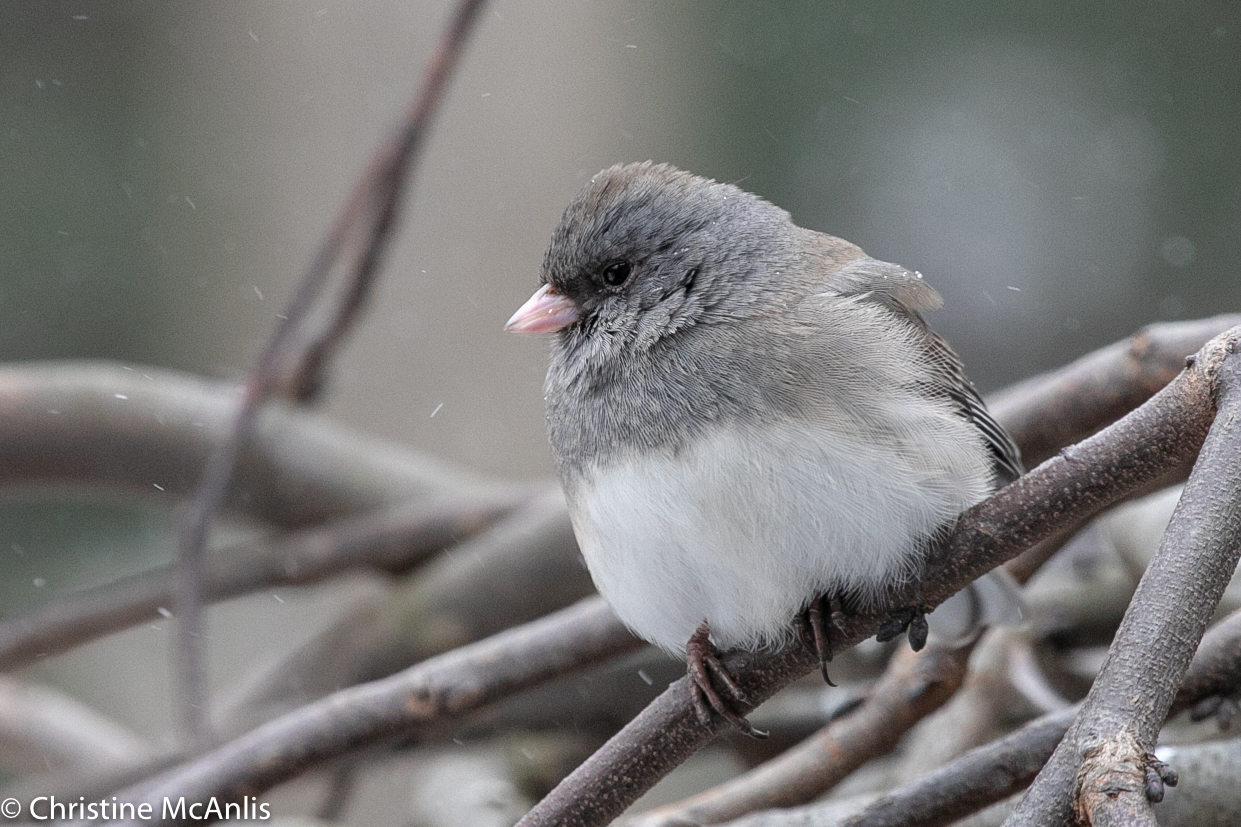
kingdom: Animalia
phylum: Chordata
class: Aves
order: Passeriformes
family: Passerellidae
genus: Junco
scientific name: Junco hyemalis
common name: Dark-eyed junco
